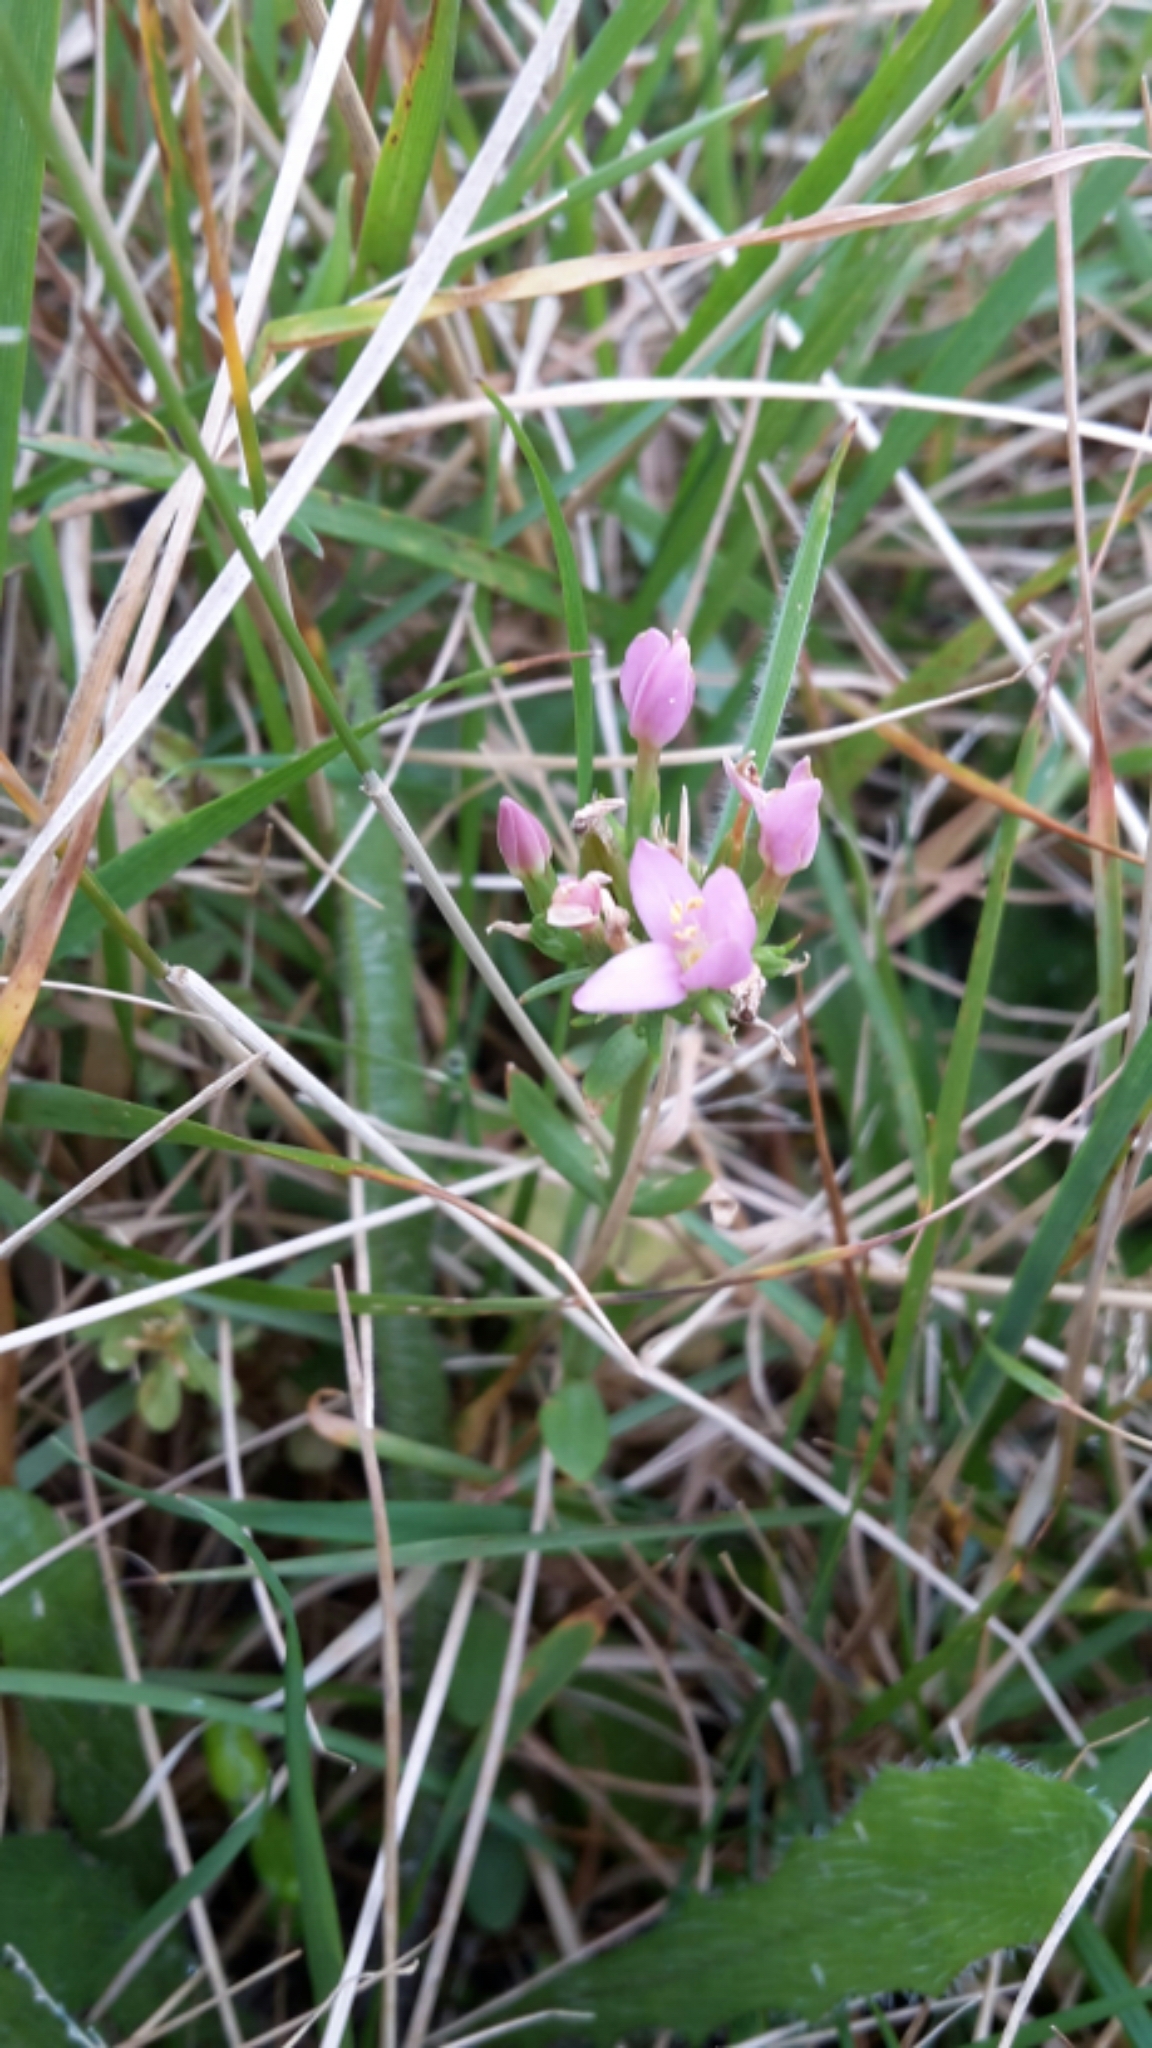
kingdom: Plantae
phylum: Tracheophyta
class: Magnoliopsida
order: Gentianales
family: Gentianaceae
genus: Centaurium
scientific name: Centaurium erythraea
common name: Common centaury
